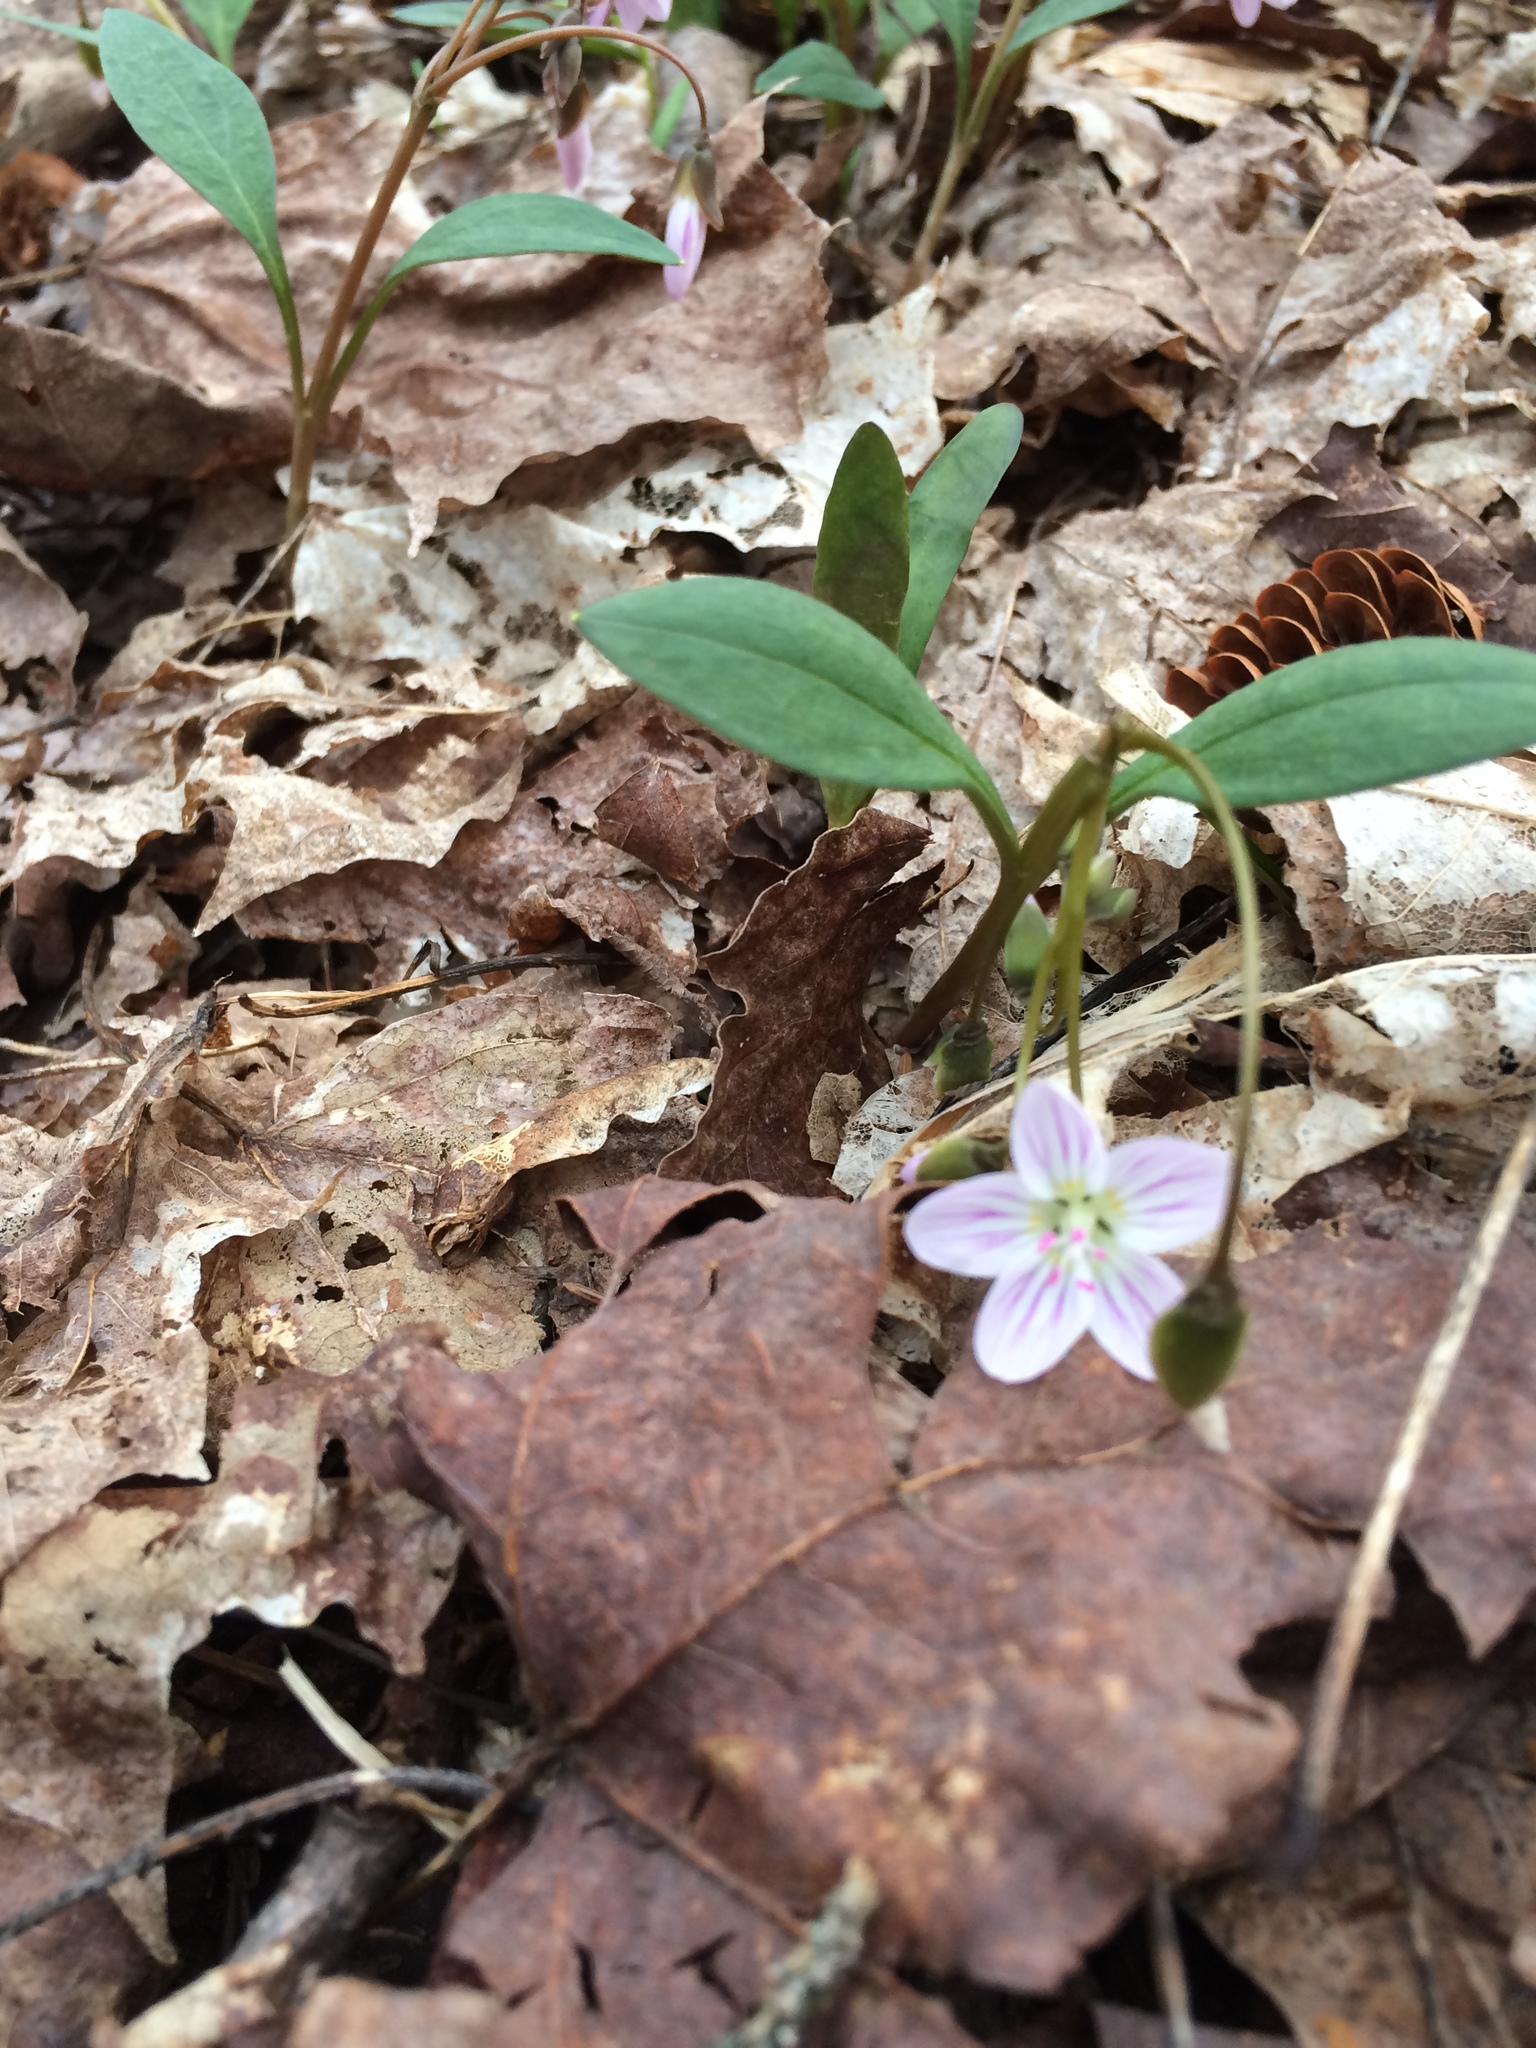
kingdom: Plantae
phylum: Tracheophyta
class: Magnoliopsida
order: Caryophyllales
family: Montiaceae
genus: Claytonia
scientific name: Claytonia caroliniana
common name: Carolina spring beauty
